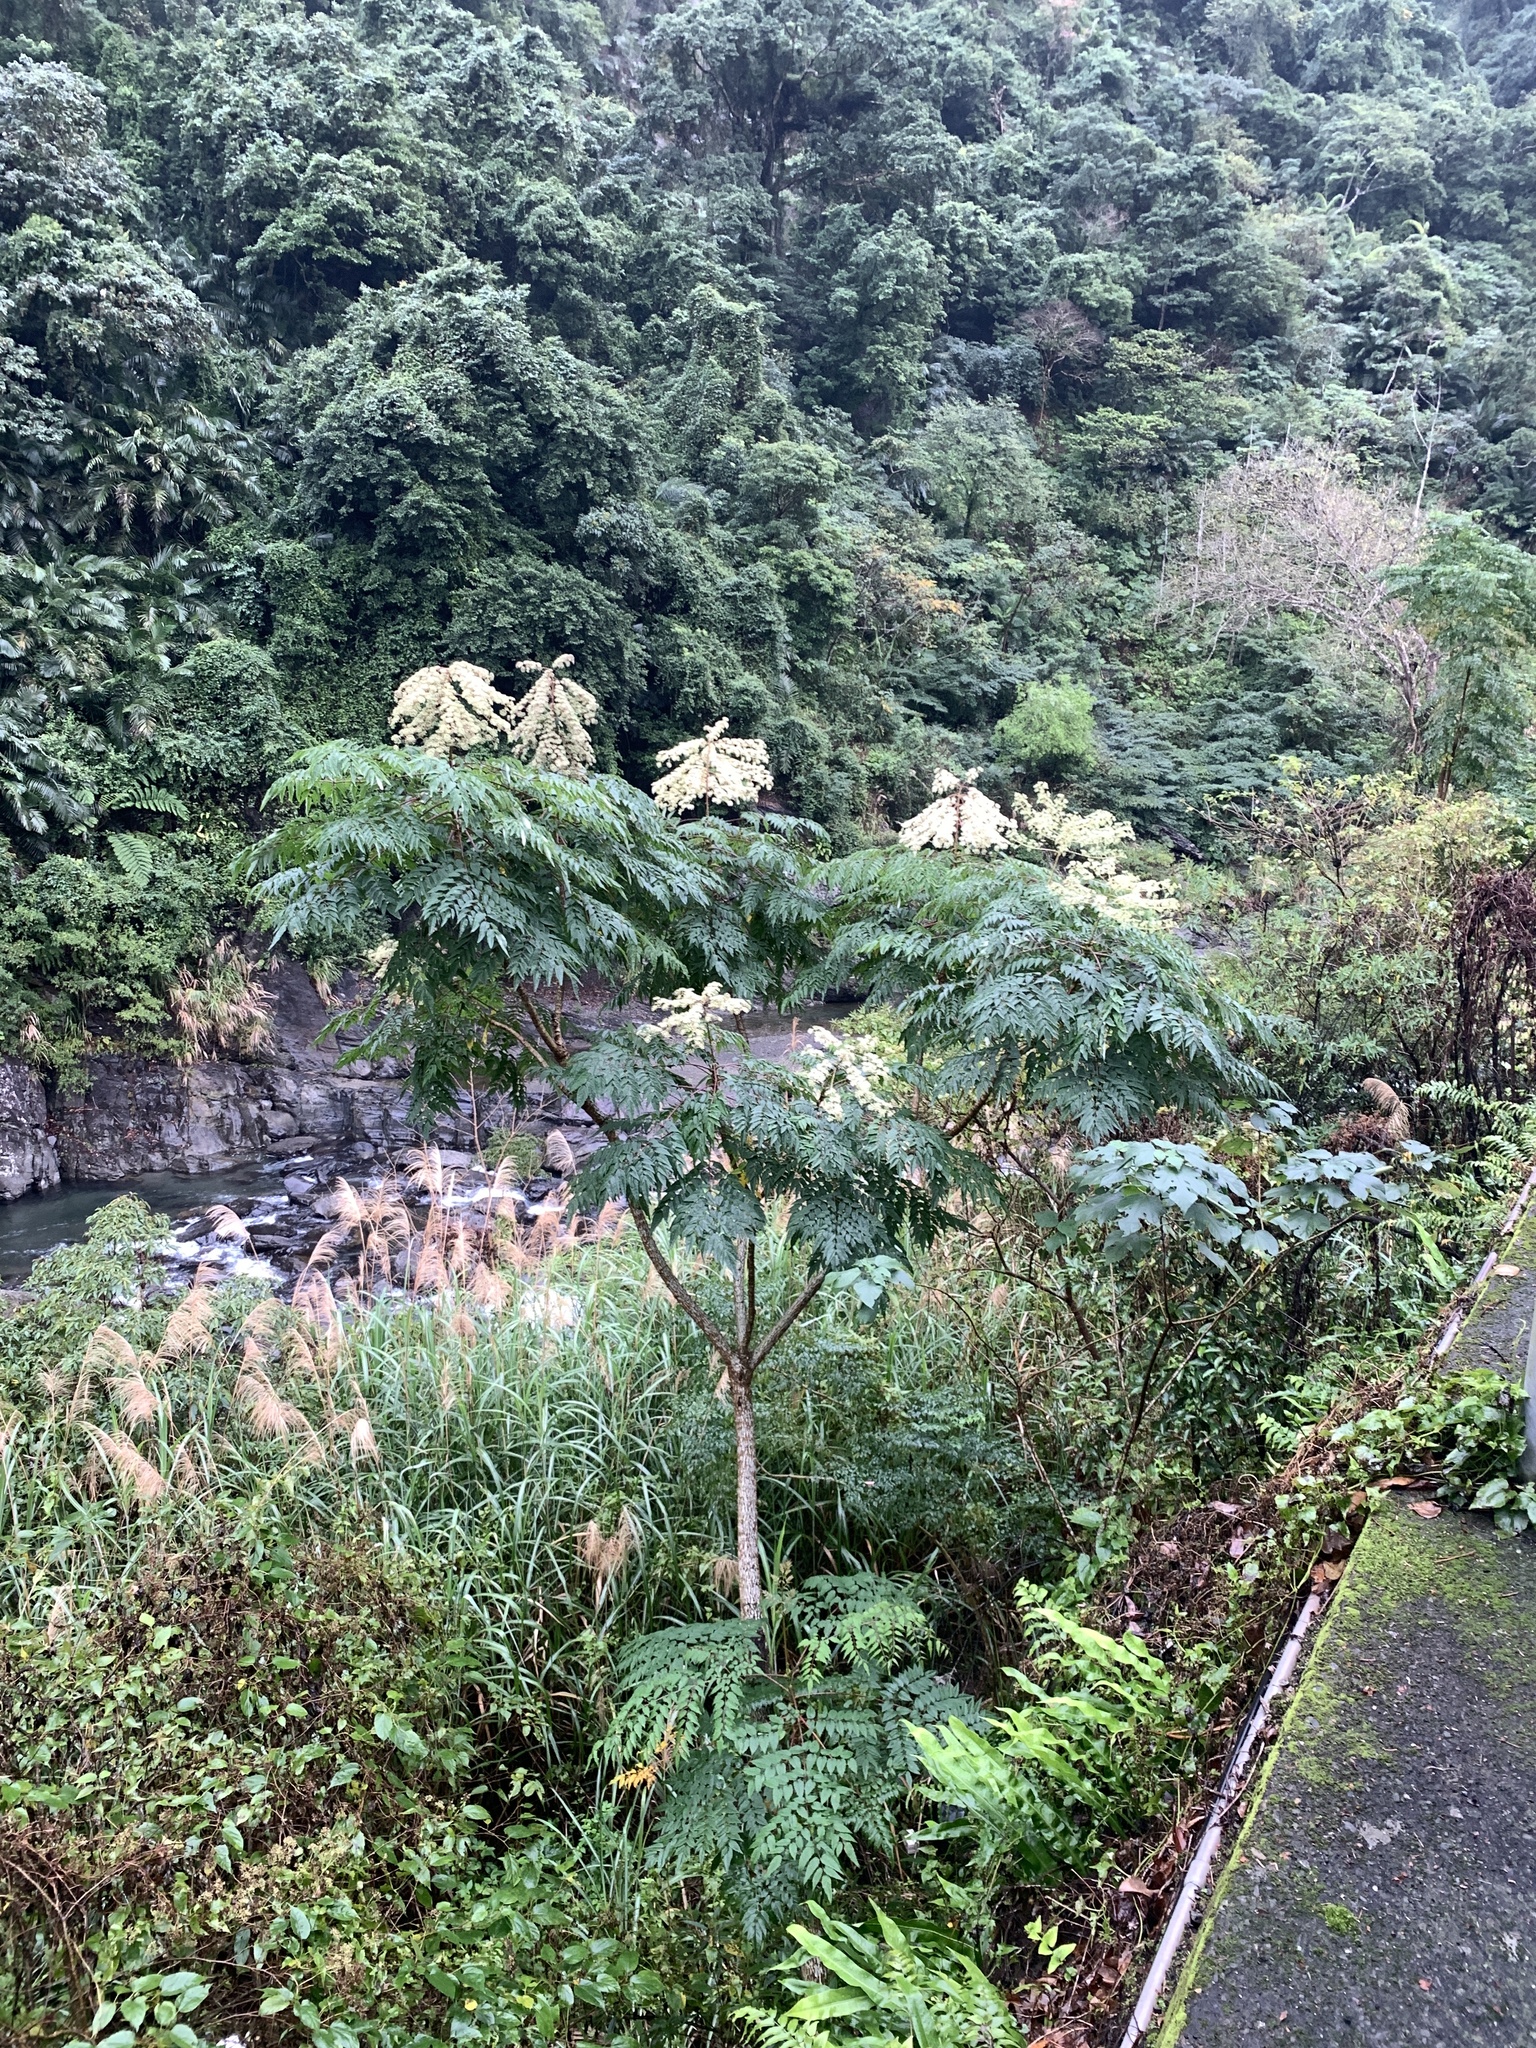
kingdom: Plantae
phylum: Tracheophyta
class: Magnoliopsida
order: Apiales
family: Araliaceae
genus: Aralia
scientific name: Aralia bipinnata
